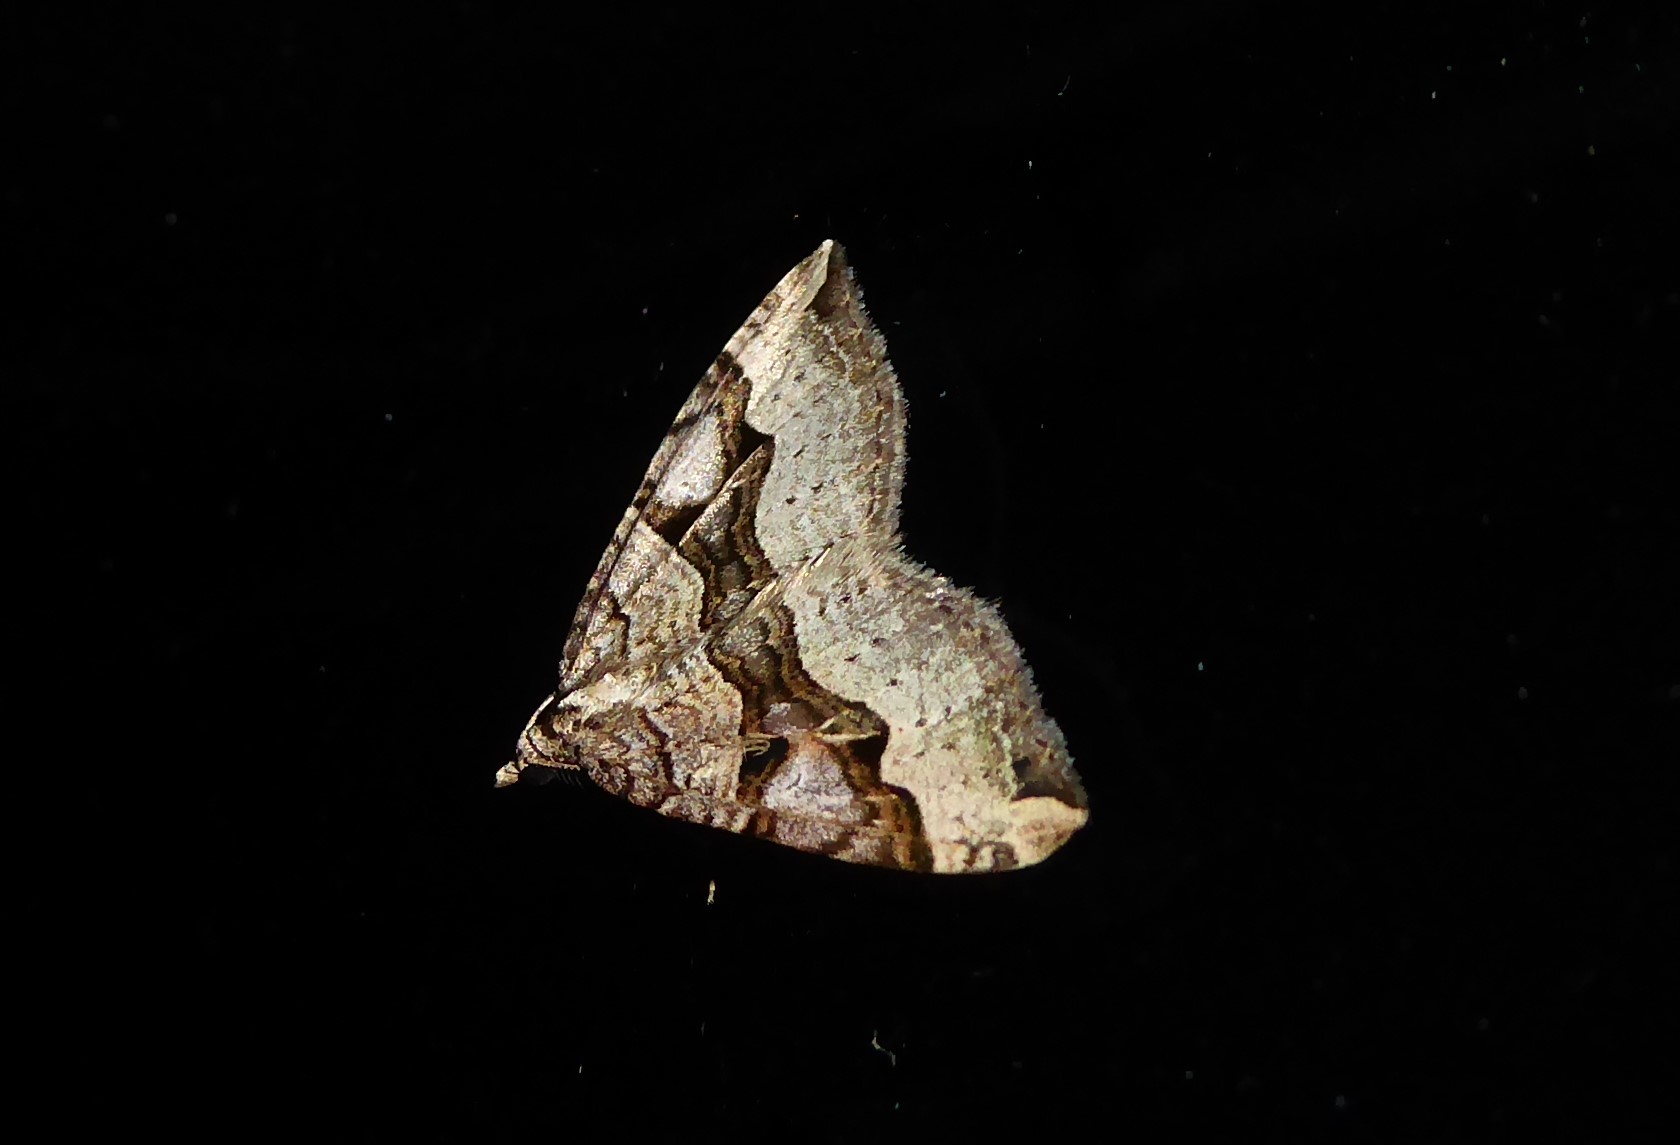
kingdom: Animalia
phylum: Arthropoda
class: Insecta
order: Lepidoptera
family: Geometridae
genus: Xanthorhoe
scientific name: Xanthorhoe semifissata
